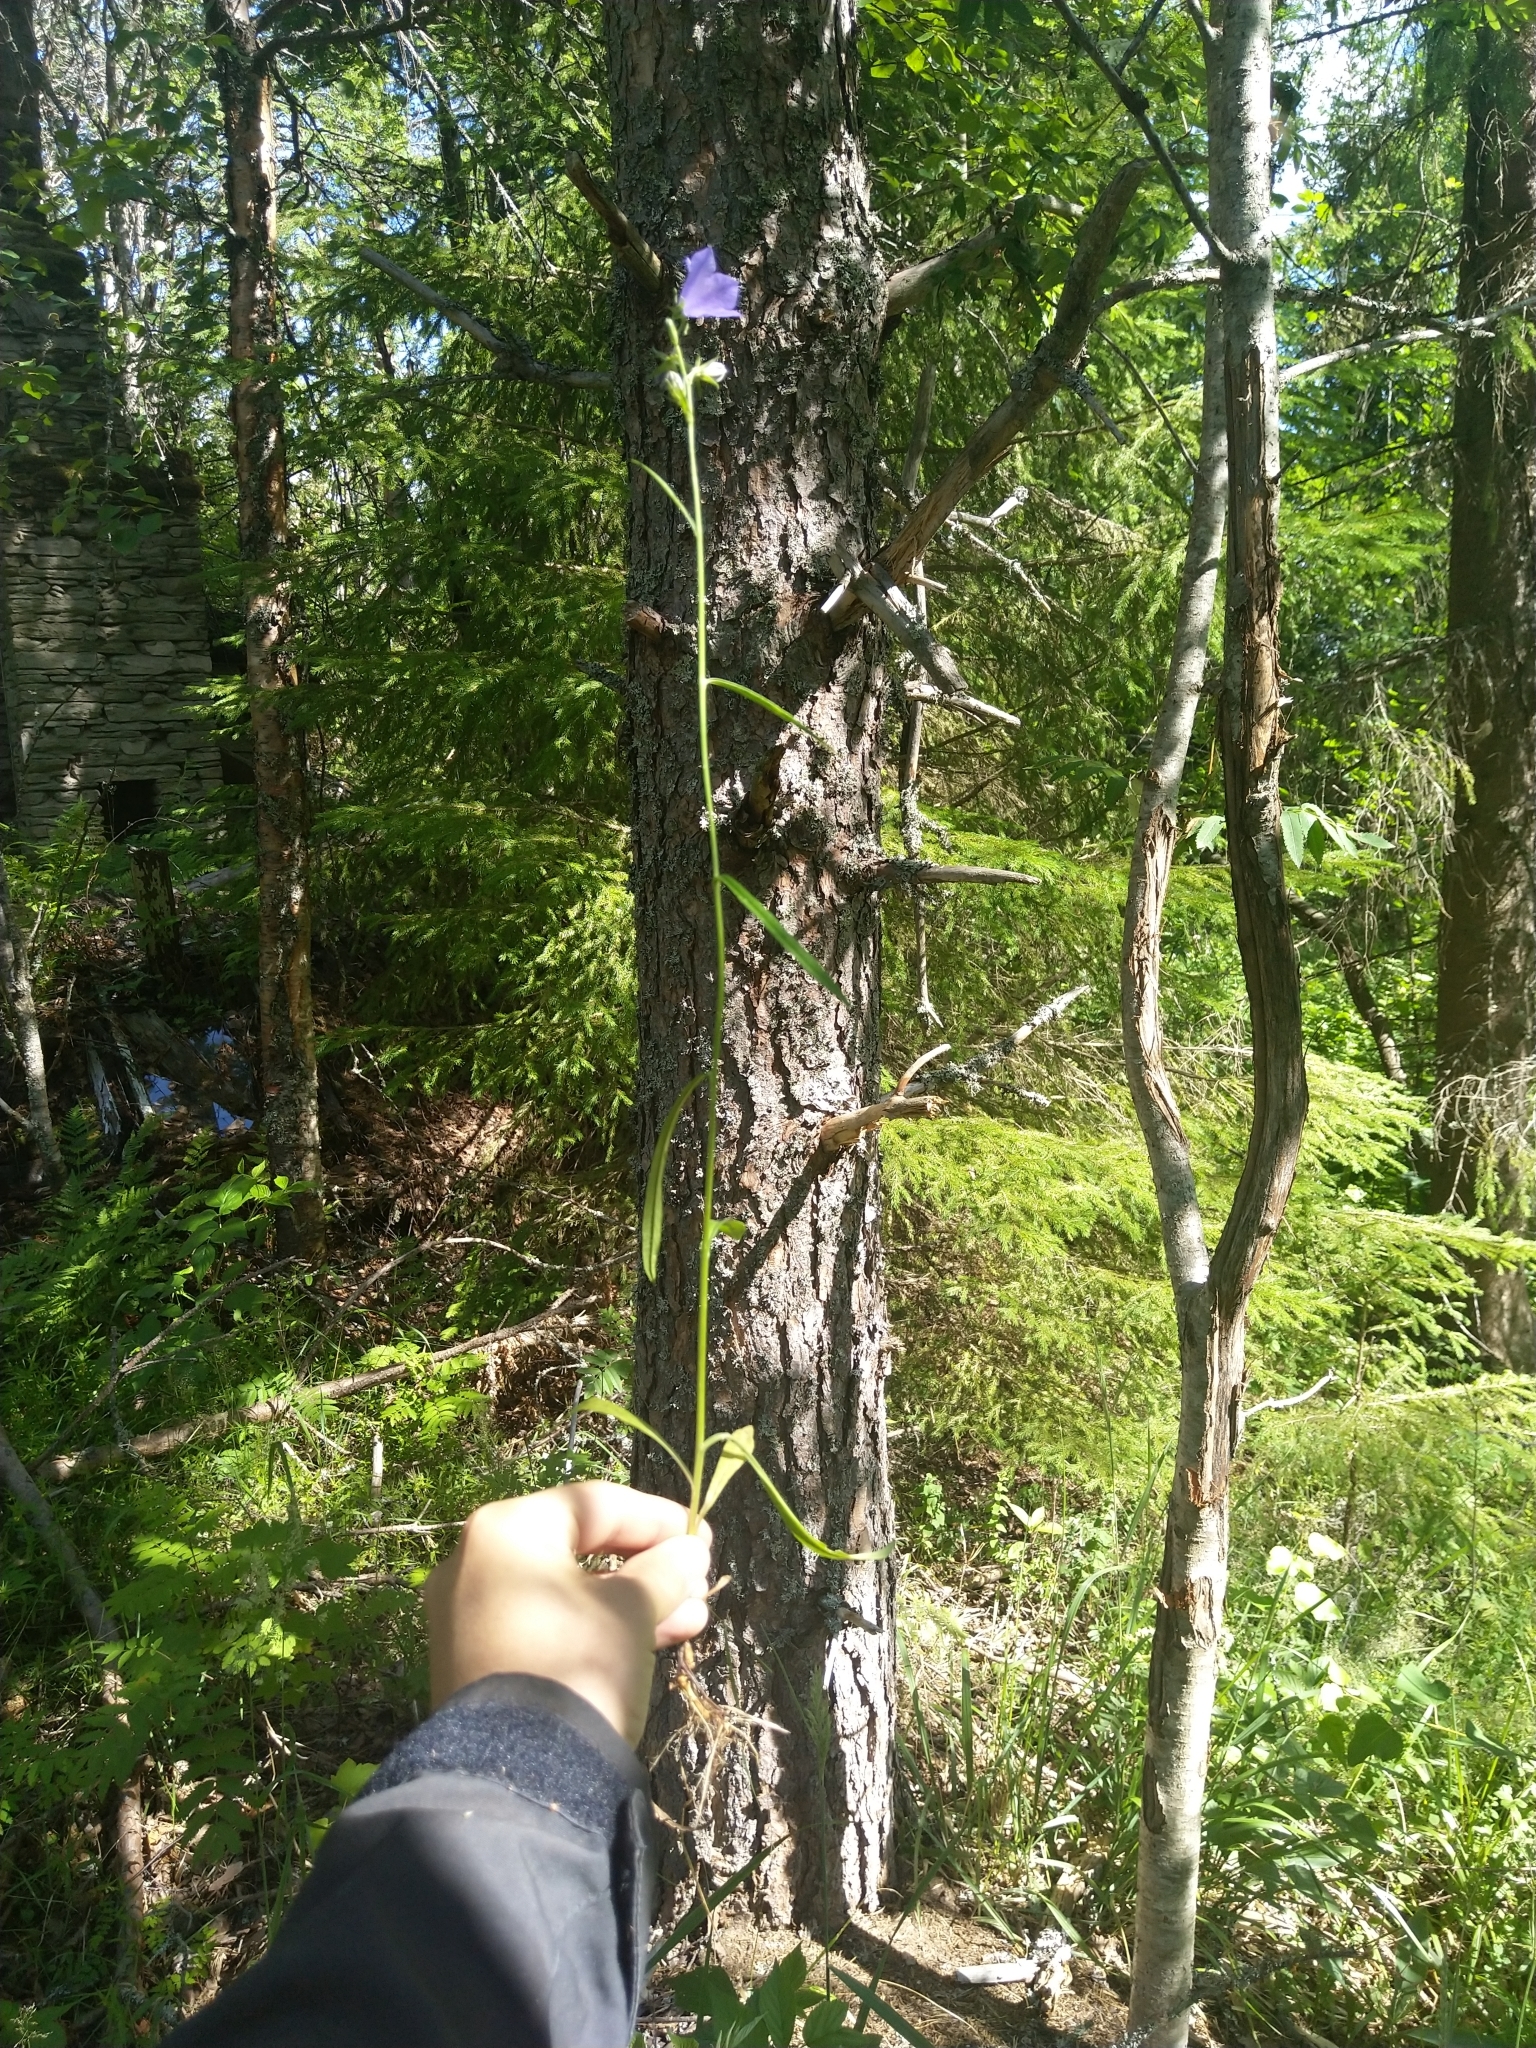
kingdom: Plantae
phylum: Tracheophyta
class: Magnoliopsida
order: Asterales
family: Campanulaceae
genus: Campanula
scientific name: Campanula persicifolia
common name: Peach-leaved bellflower
